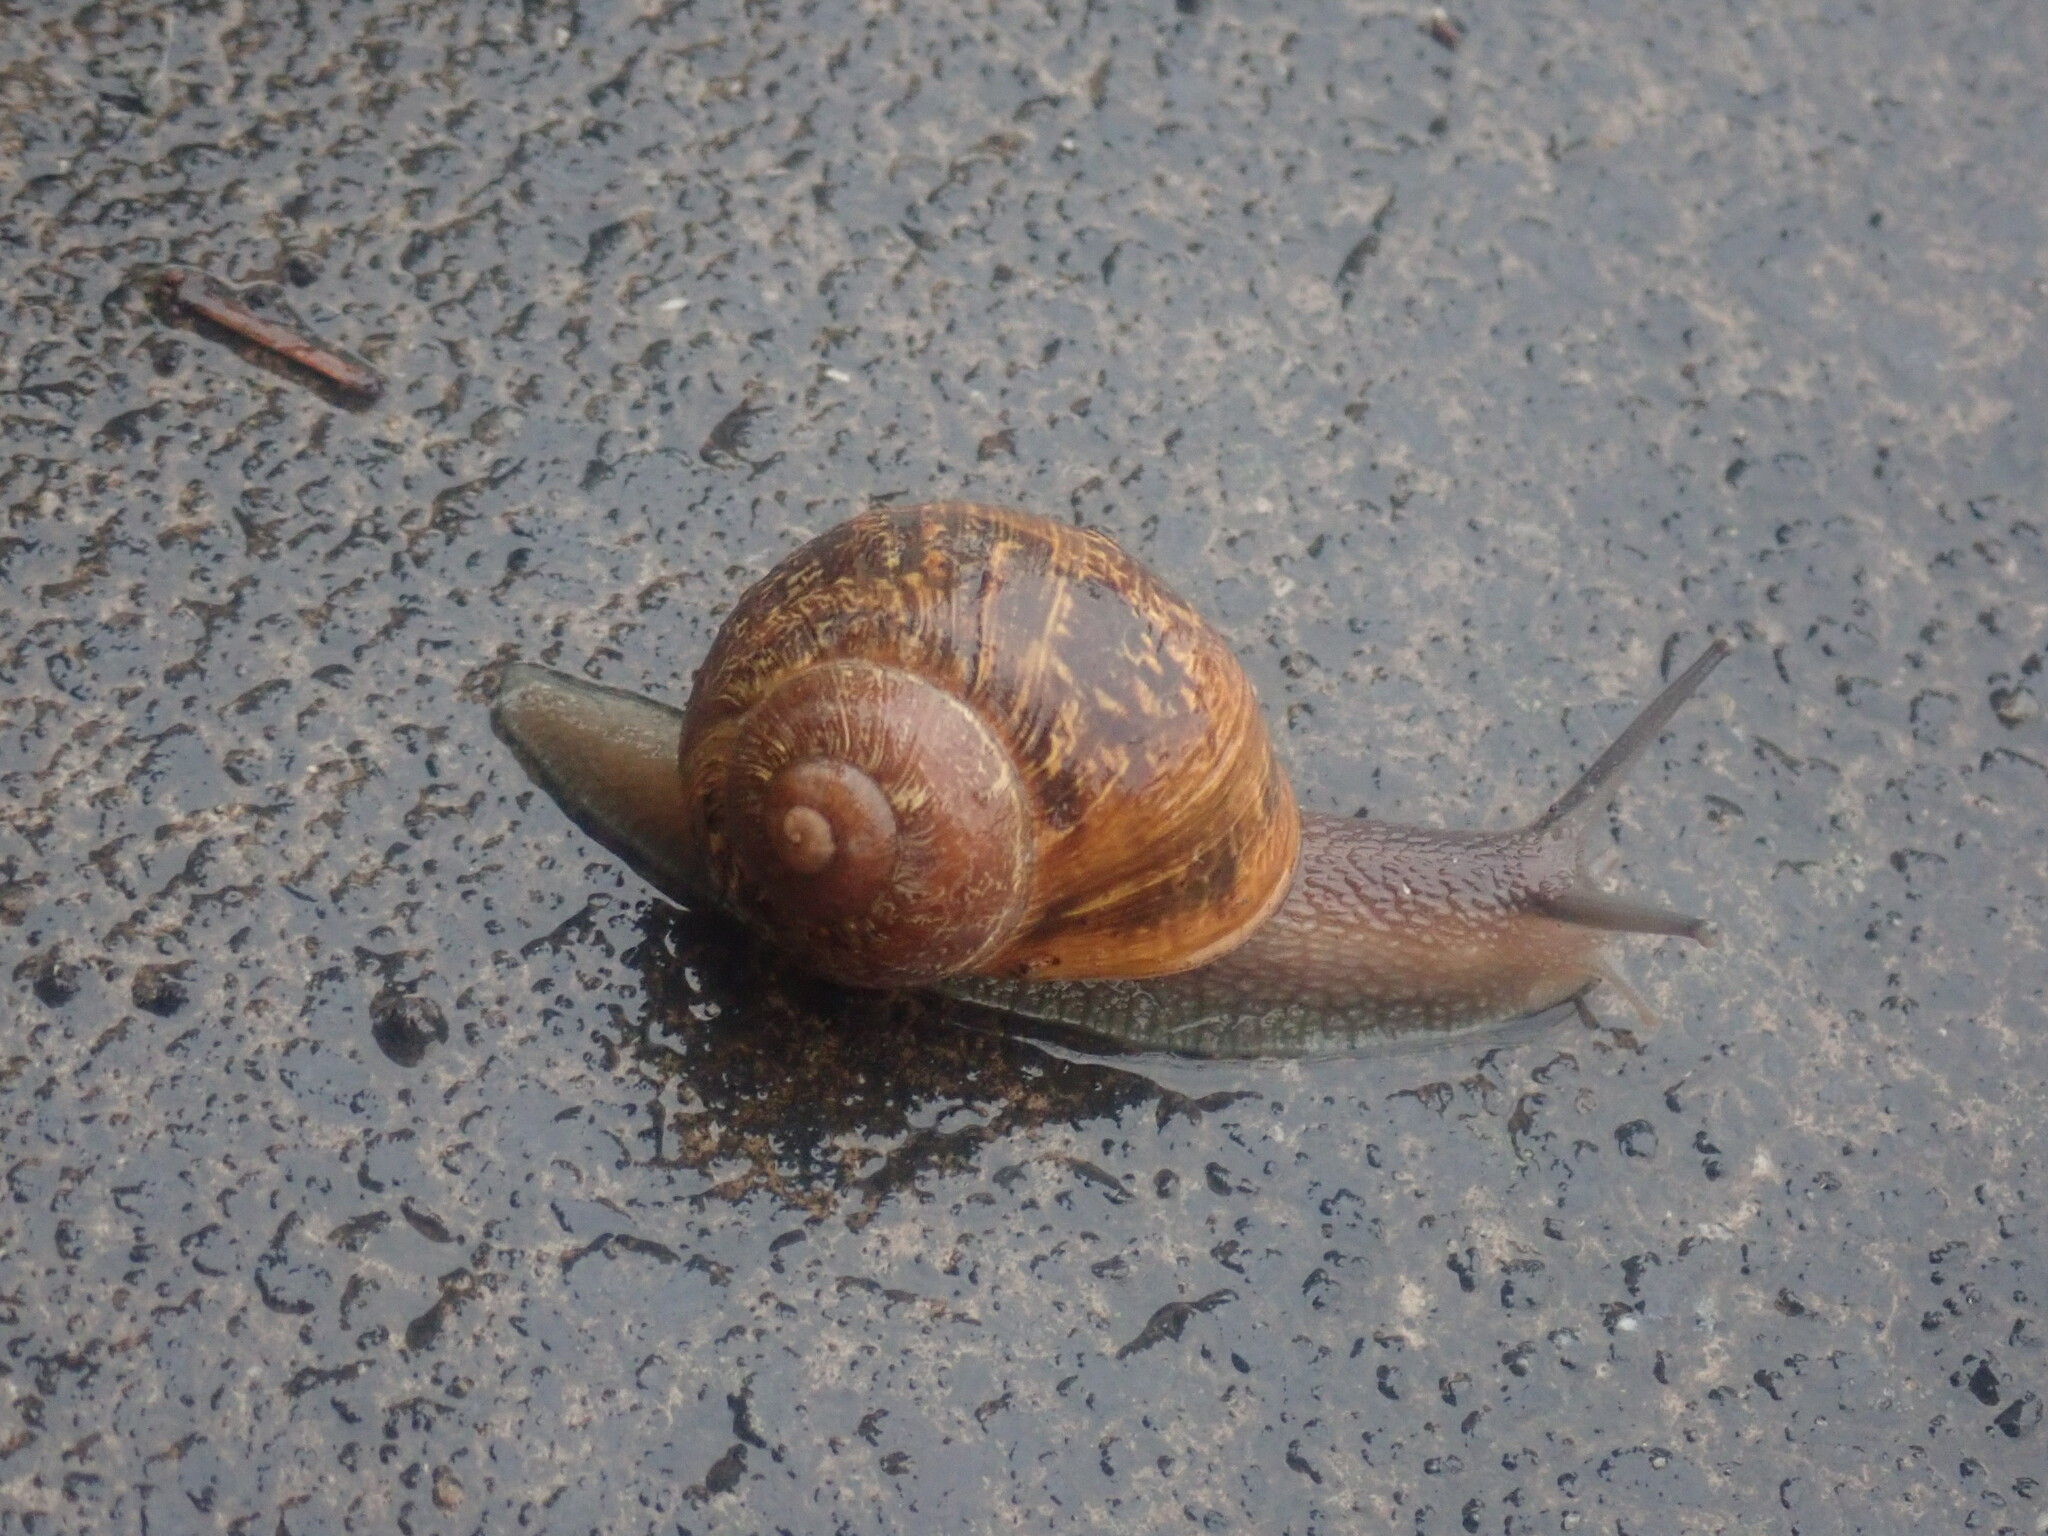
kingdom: Animalia
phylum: Mollusca
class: Gastropoda
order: Stylommatophora
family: Helicidae
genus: Cornu
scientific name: Cornu aspersum
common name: Brown garden snail
